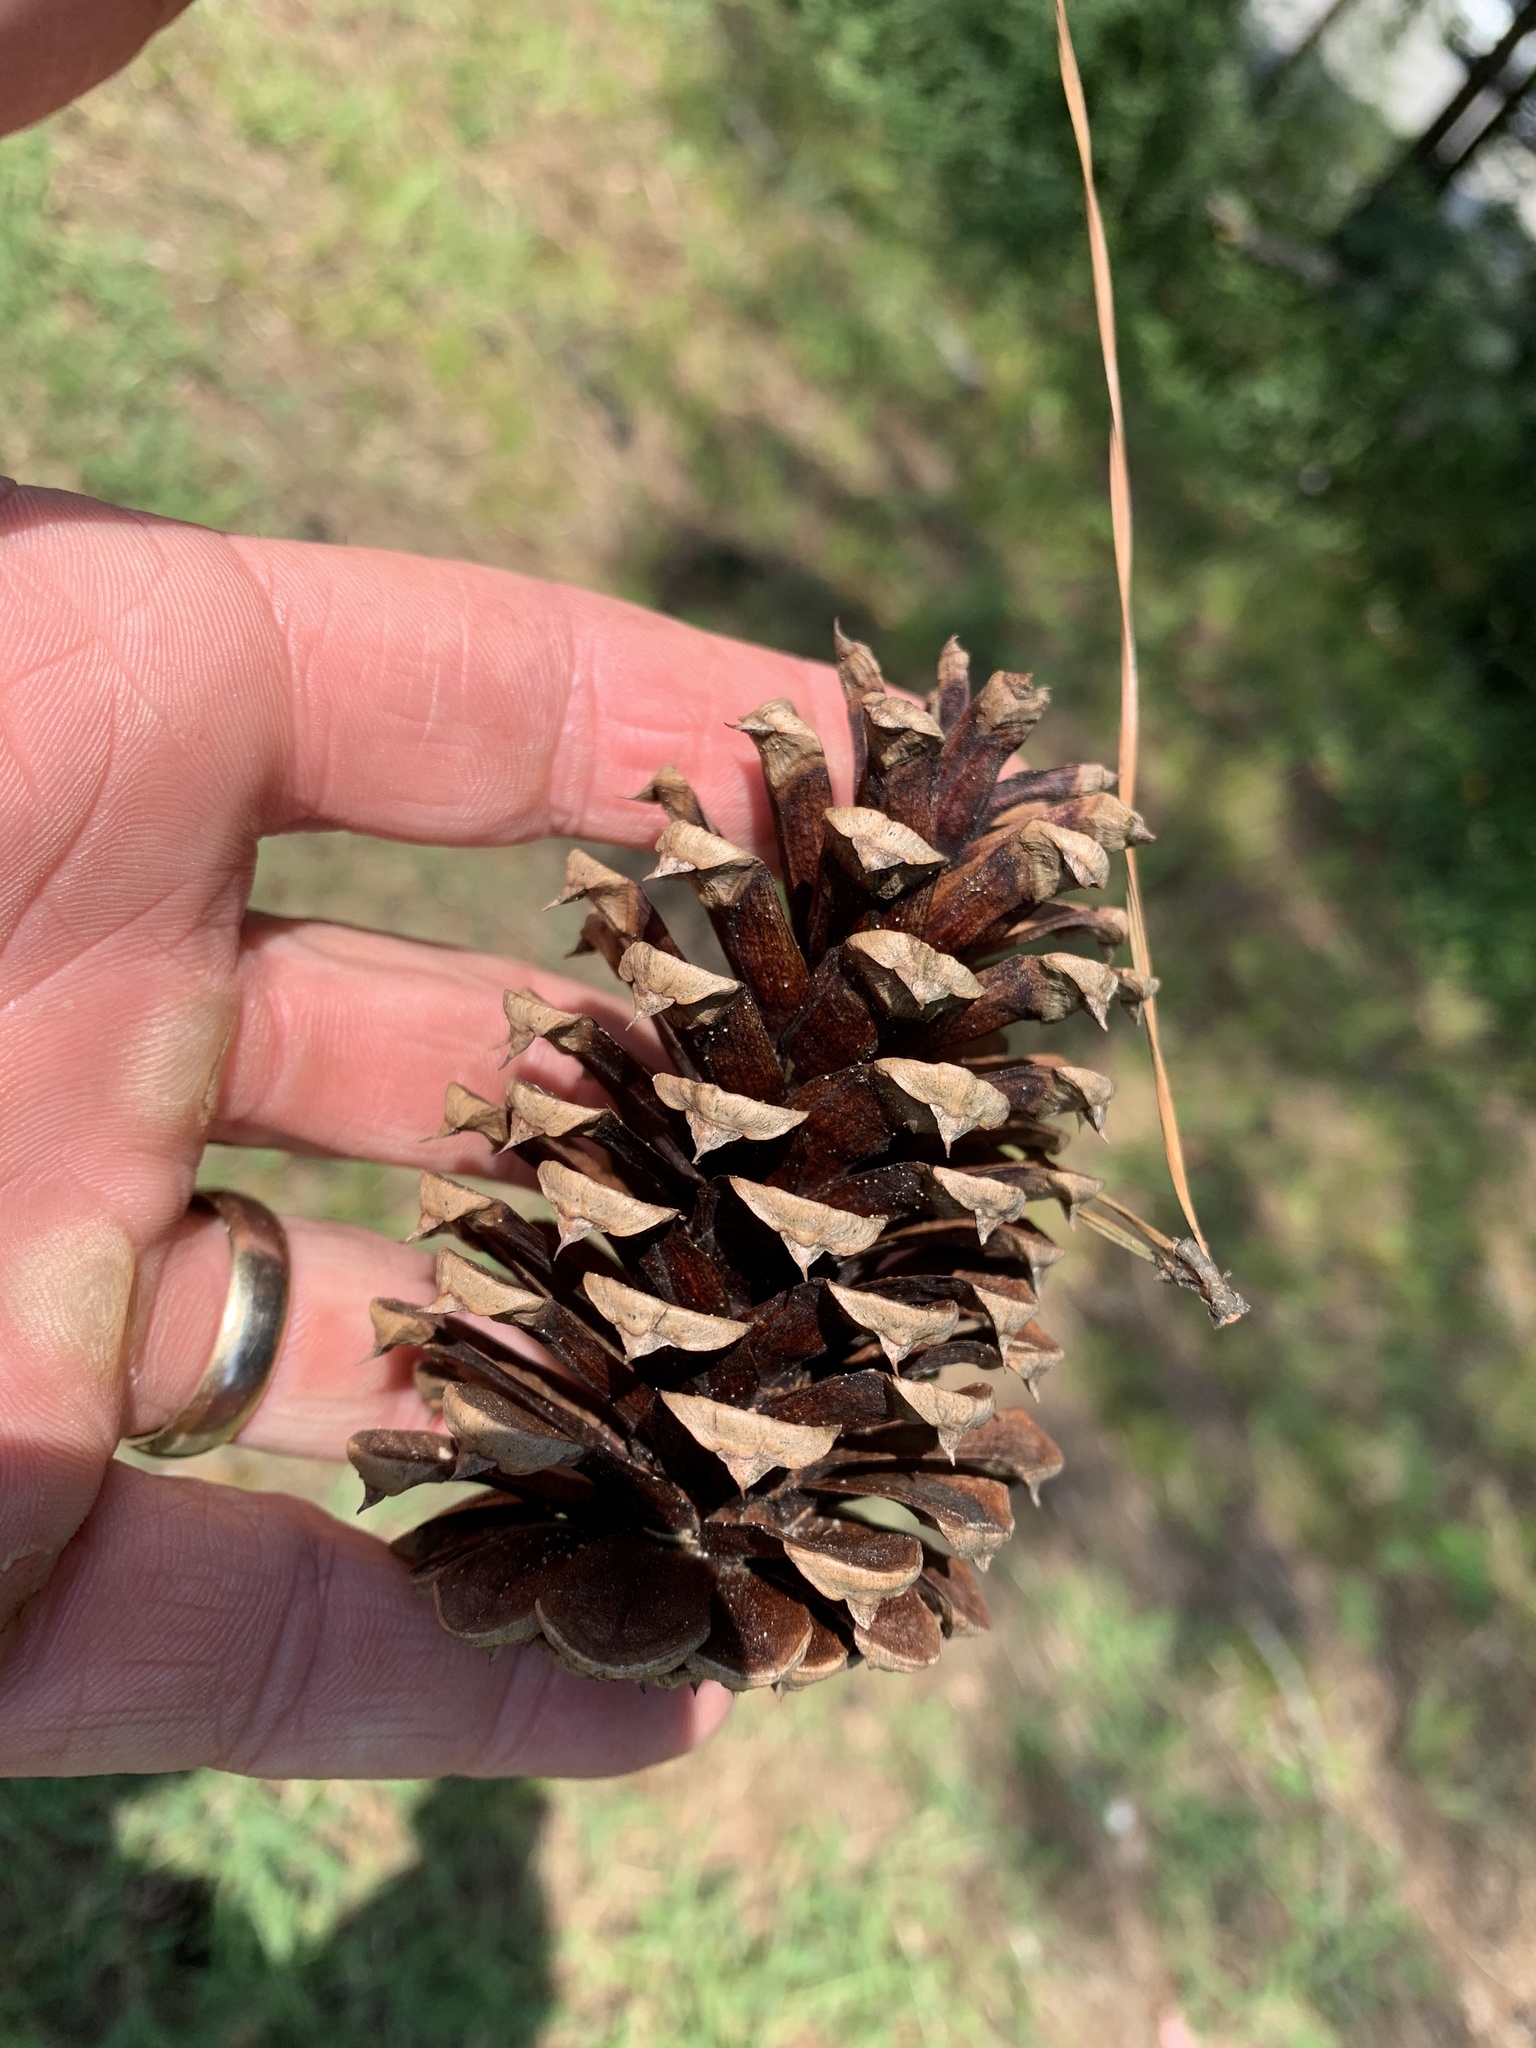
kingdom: Plantae
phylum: Tracheophyta
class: Pinopsida
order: Pinales
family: Pinaceae
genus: Pinus
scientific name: Pinus taeda
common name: Loblolly pine
